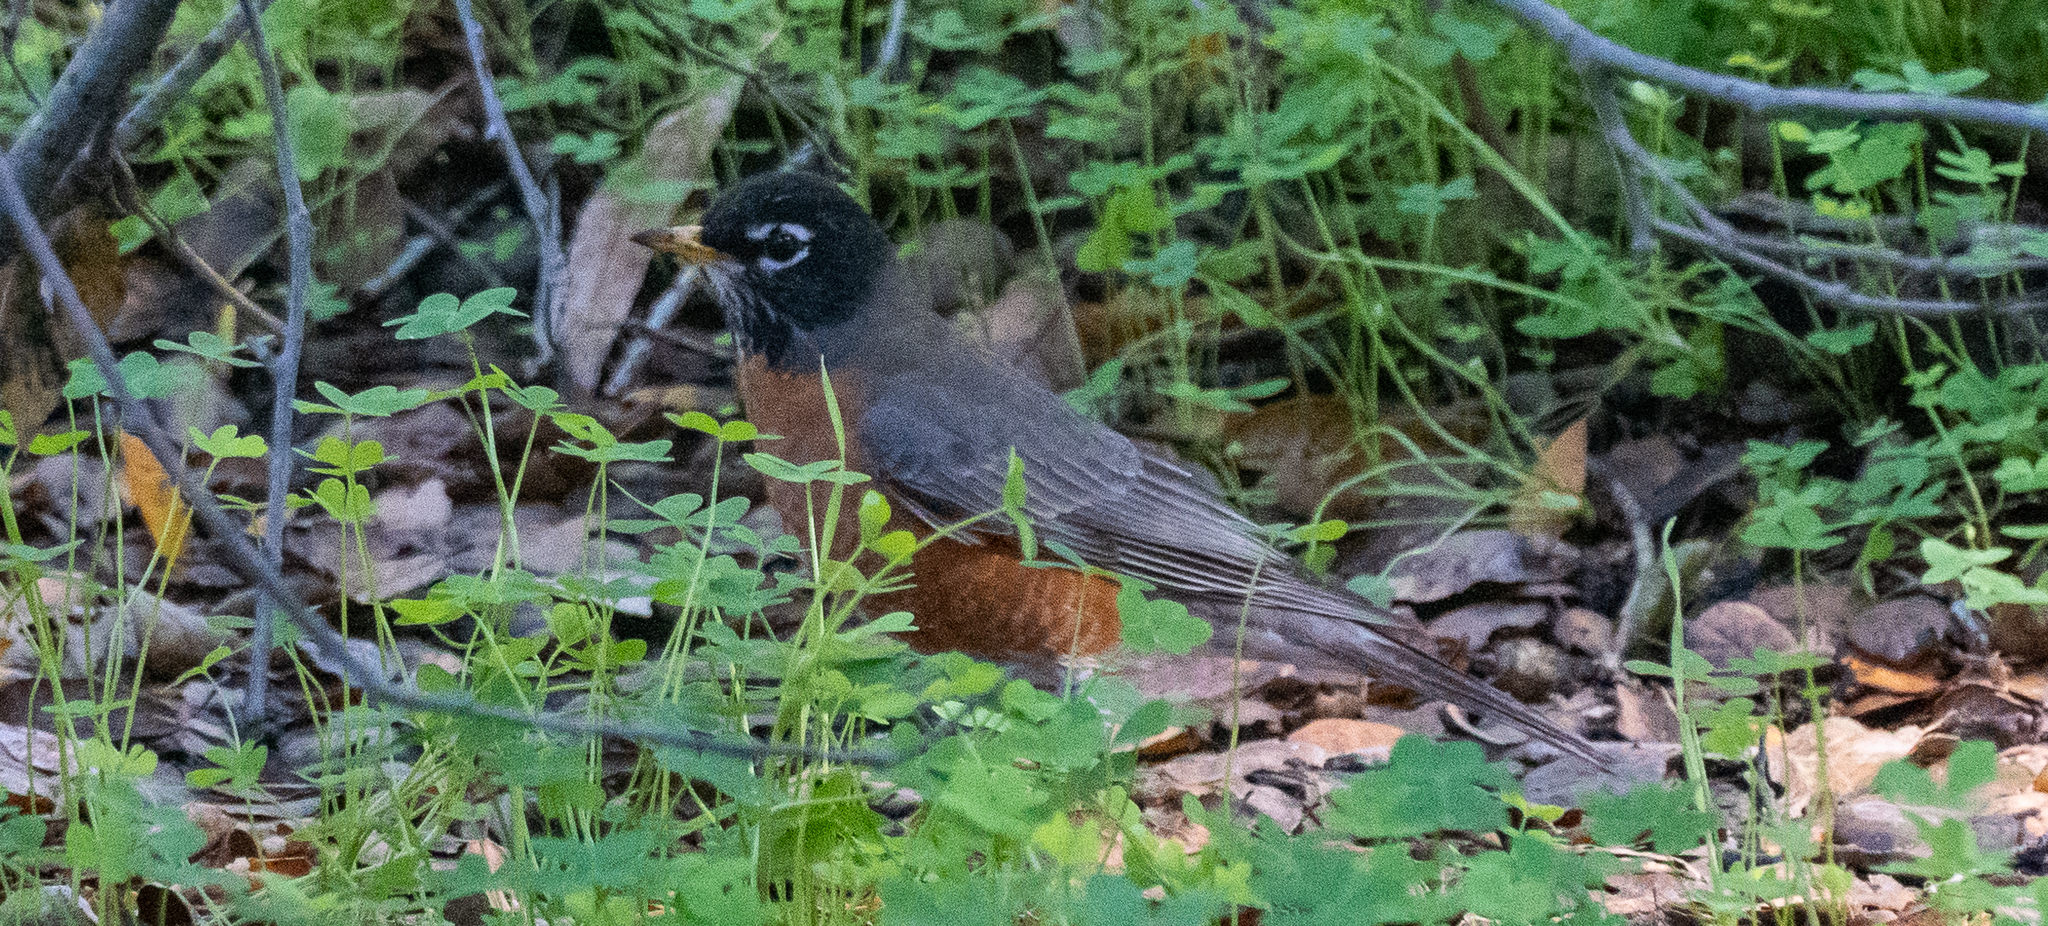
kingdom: Animalia
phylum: Chordata
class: Aves
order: Passeriformes
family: Turdidae
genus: Turdus
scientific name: Turdus migratorius
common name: American robin
